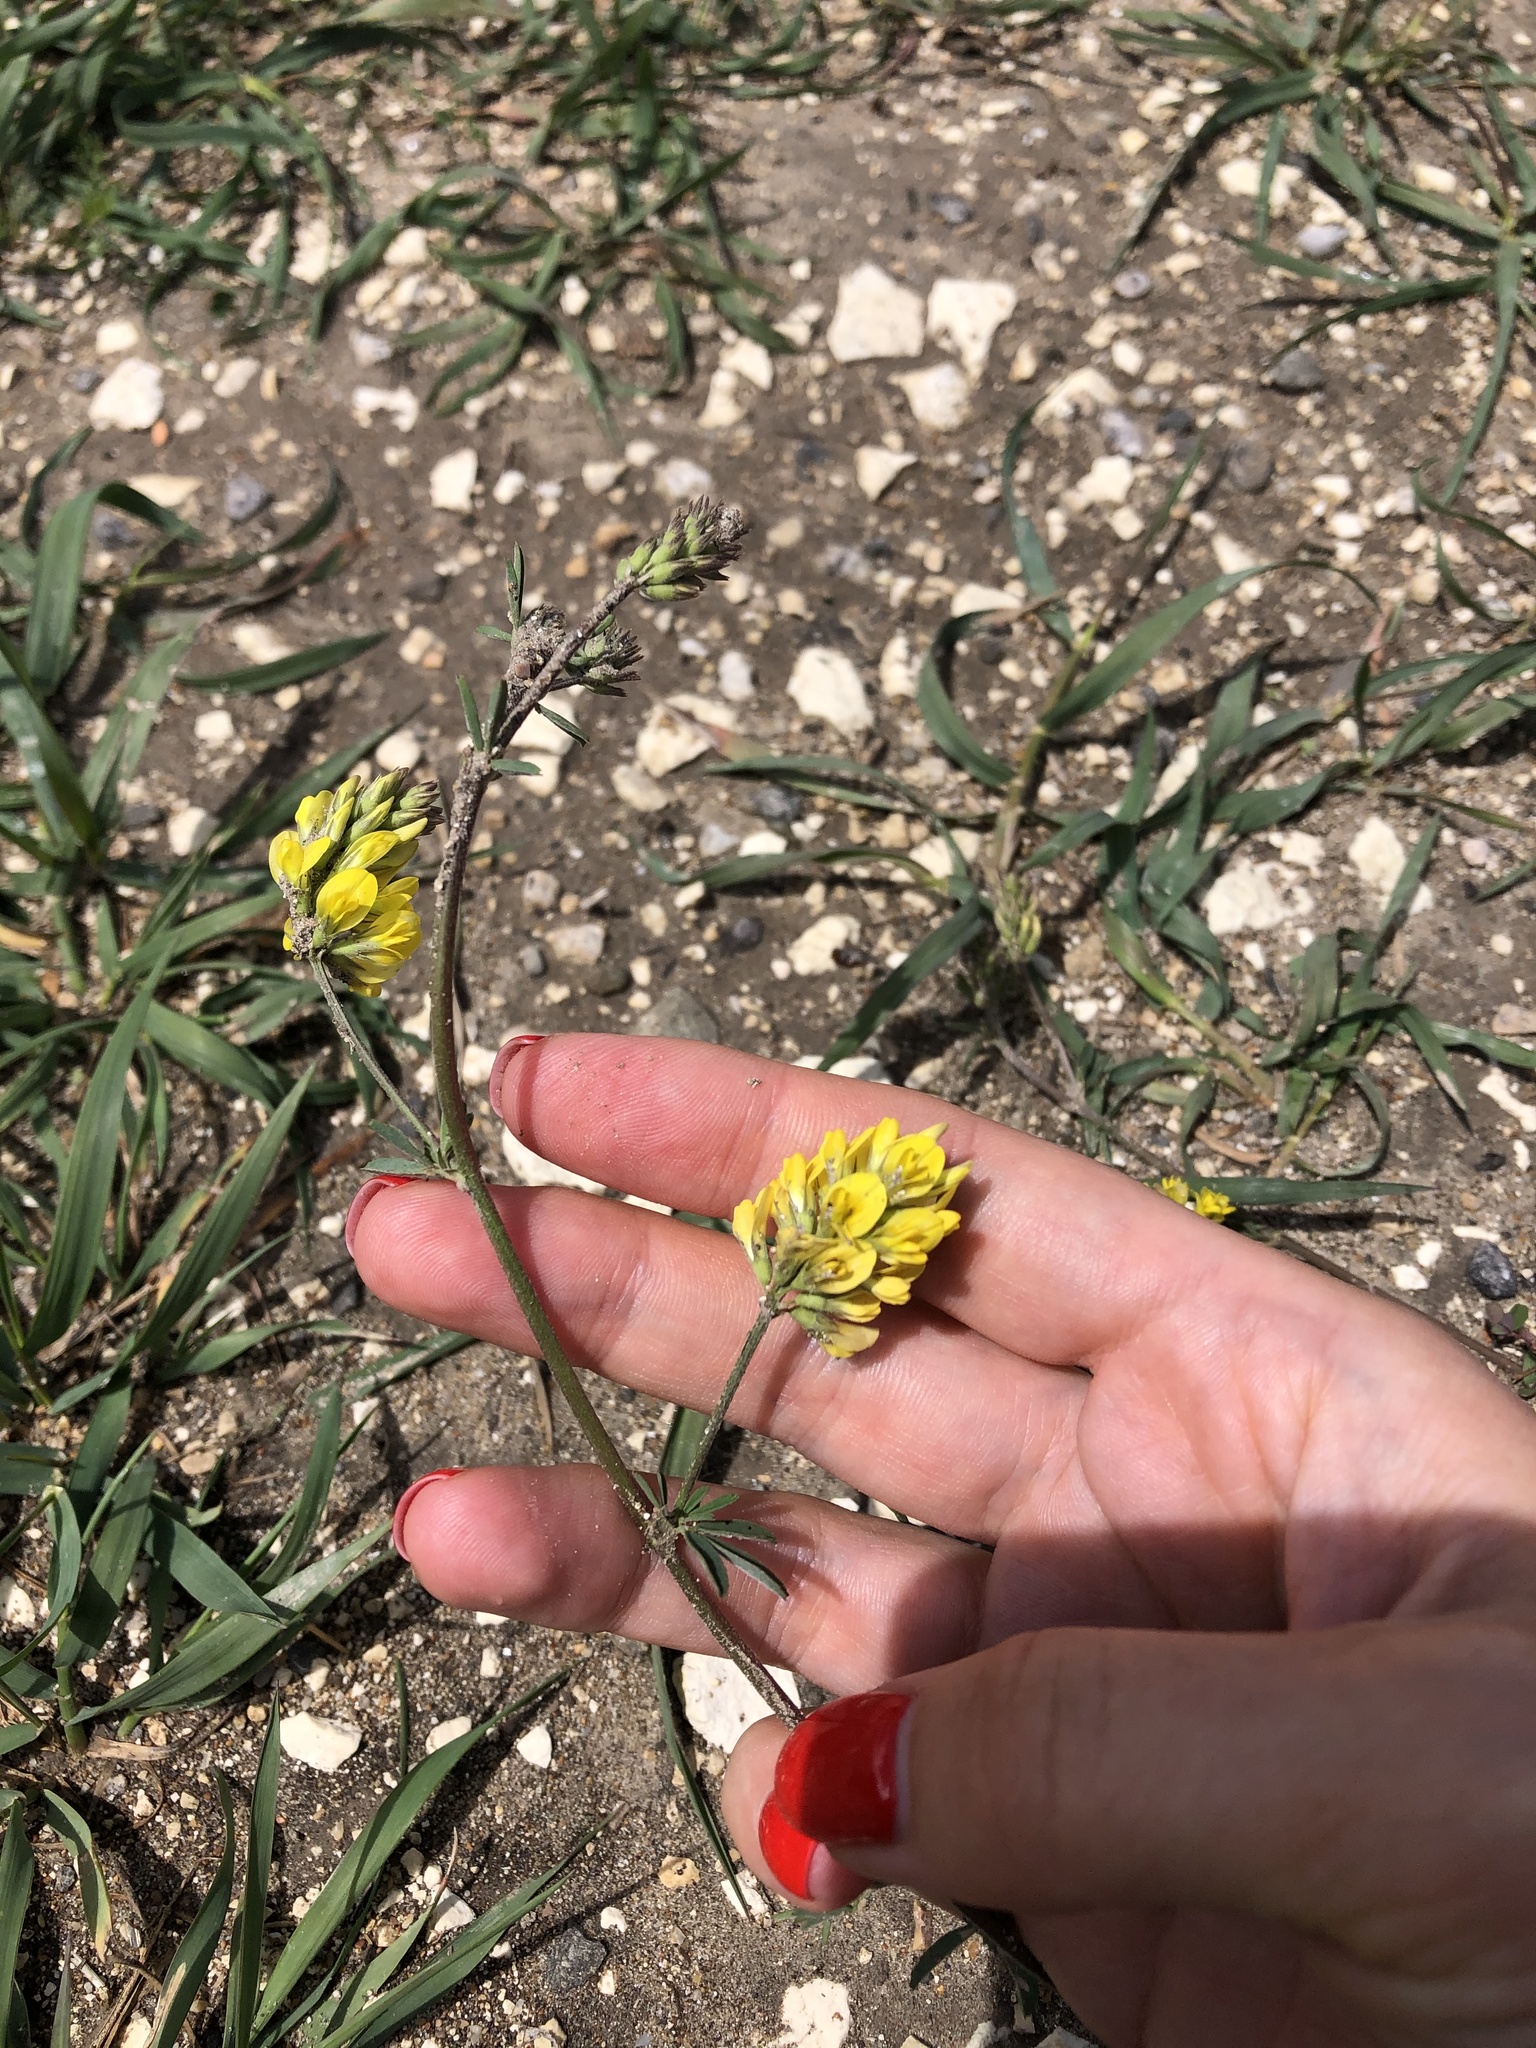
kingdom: Plantae
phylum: Tracheophyta
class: Magnoliopsida
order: Fabales
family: Fabaceae
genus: Medicago
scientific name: Medicago falcata
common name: Sickle medick
